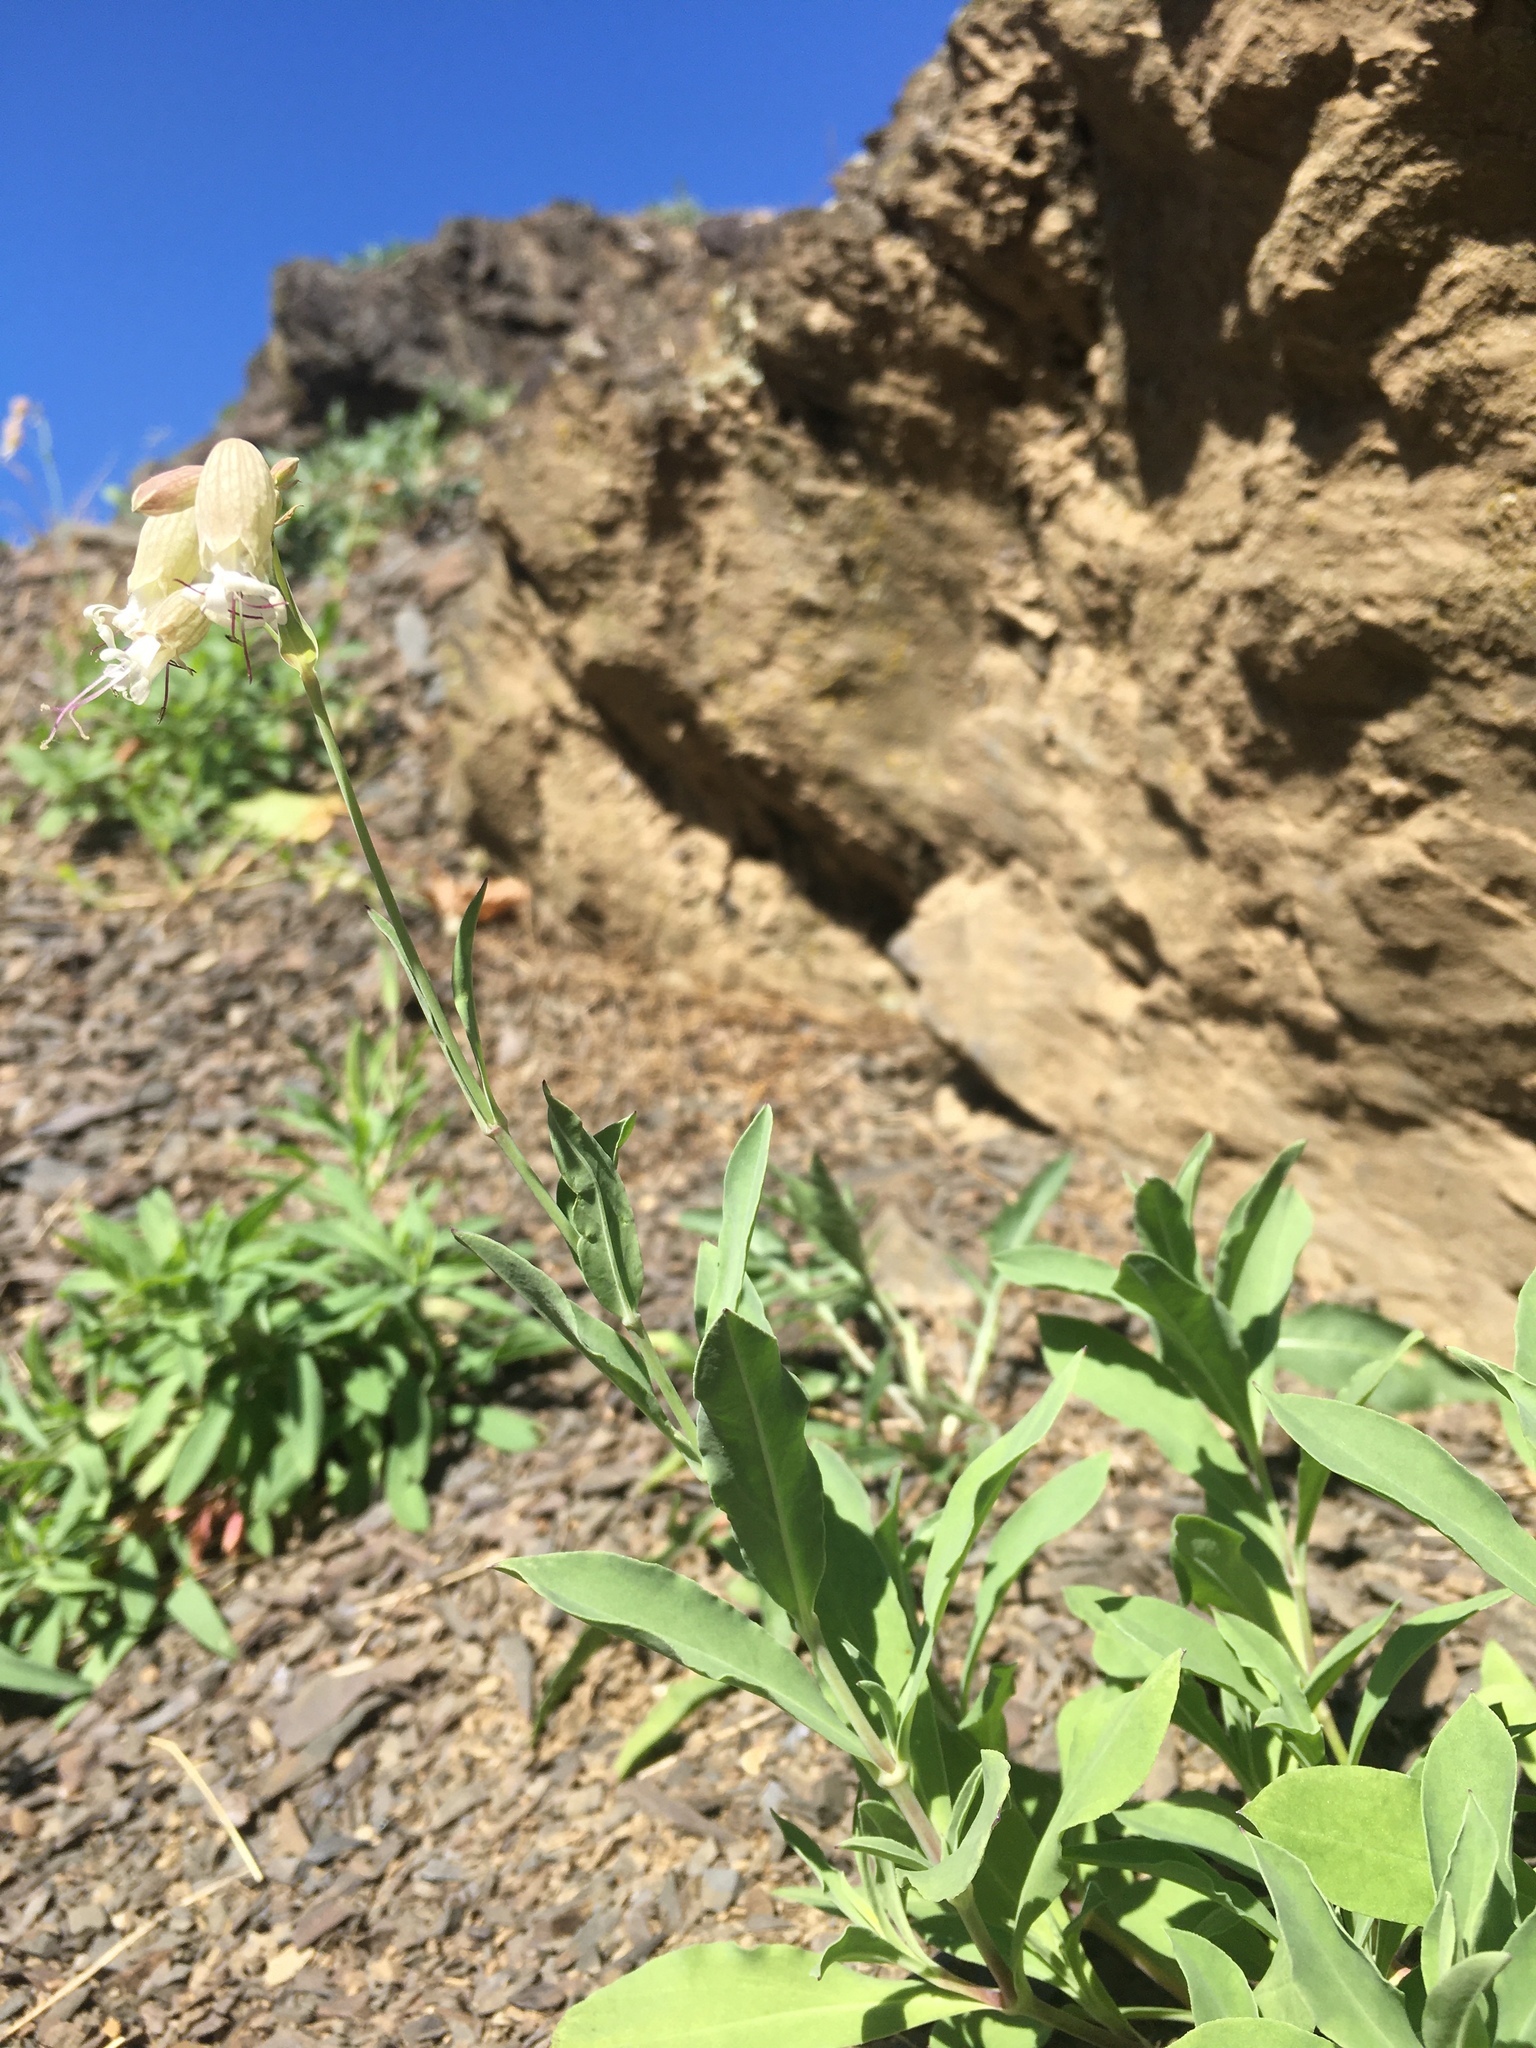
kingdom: Plantae
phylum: Tracheophyta
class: Magnoliopsida
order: Caryophyllales
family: Caryophyllaceae
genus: Silene
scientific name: Silene vulgaris
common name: Bladder campion
